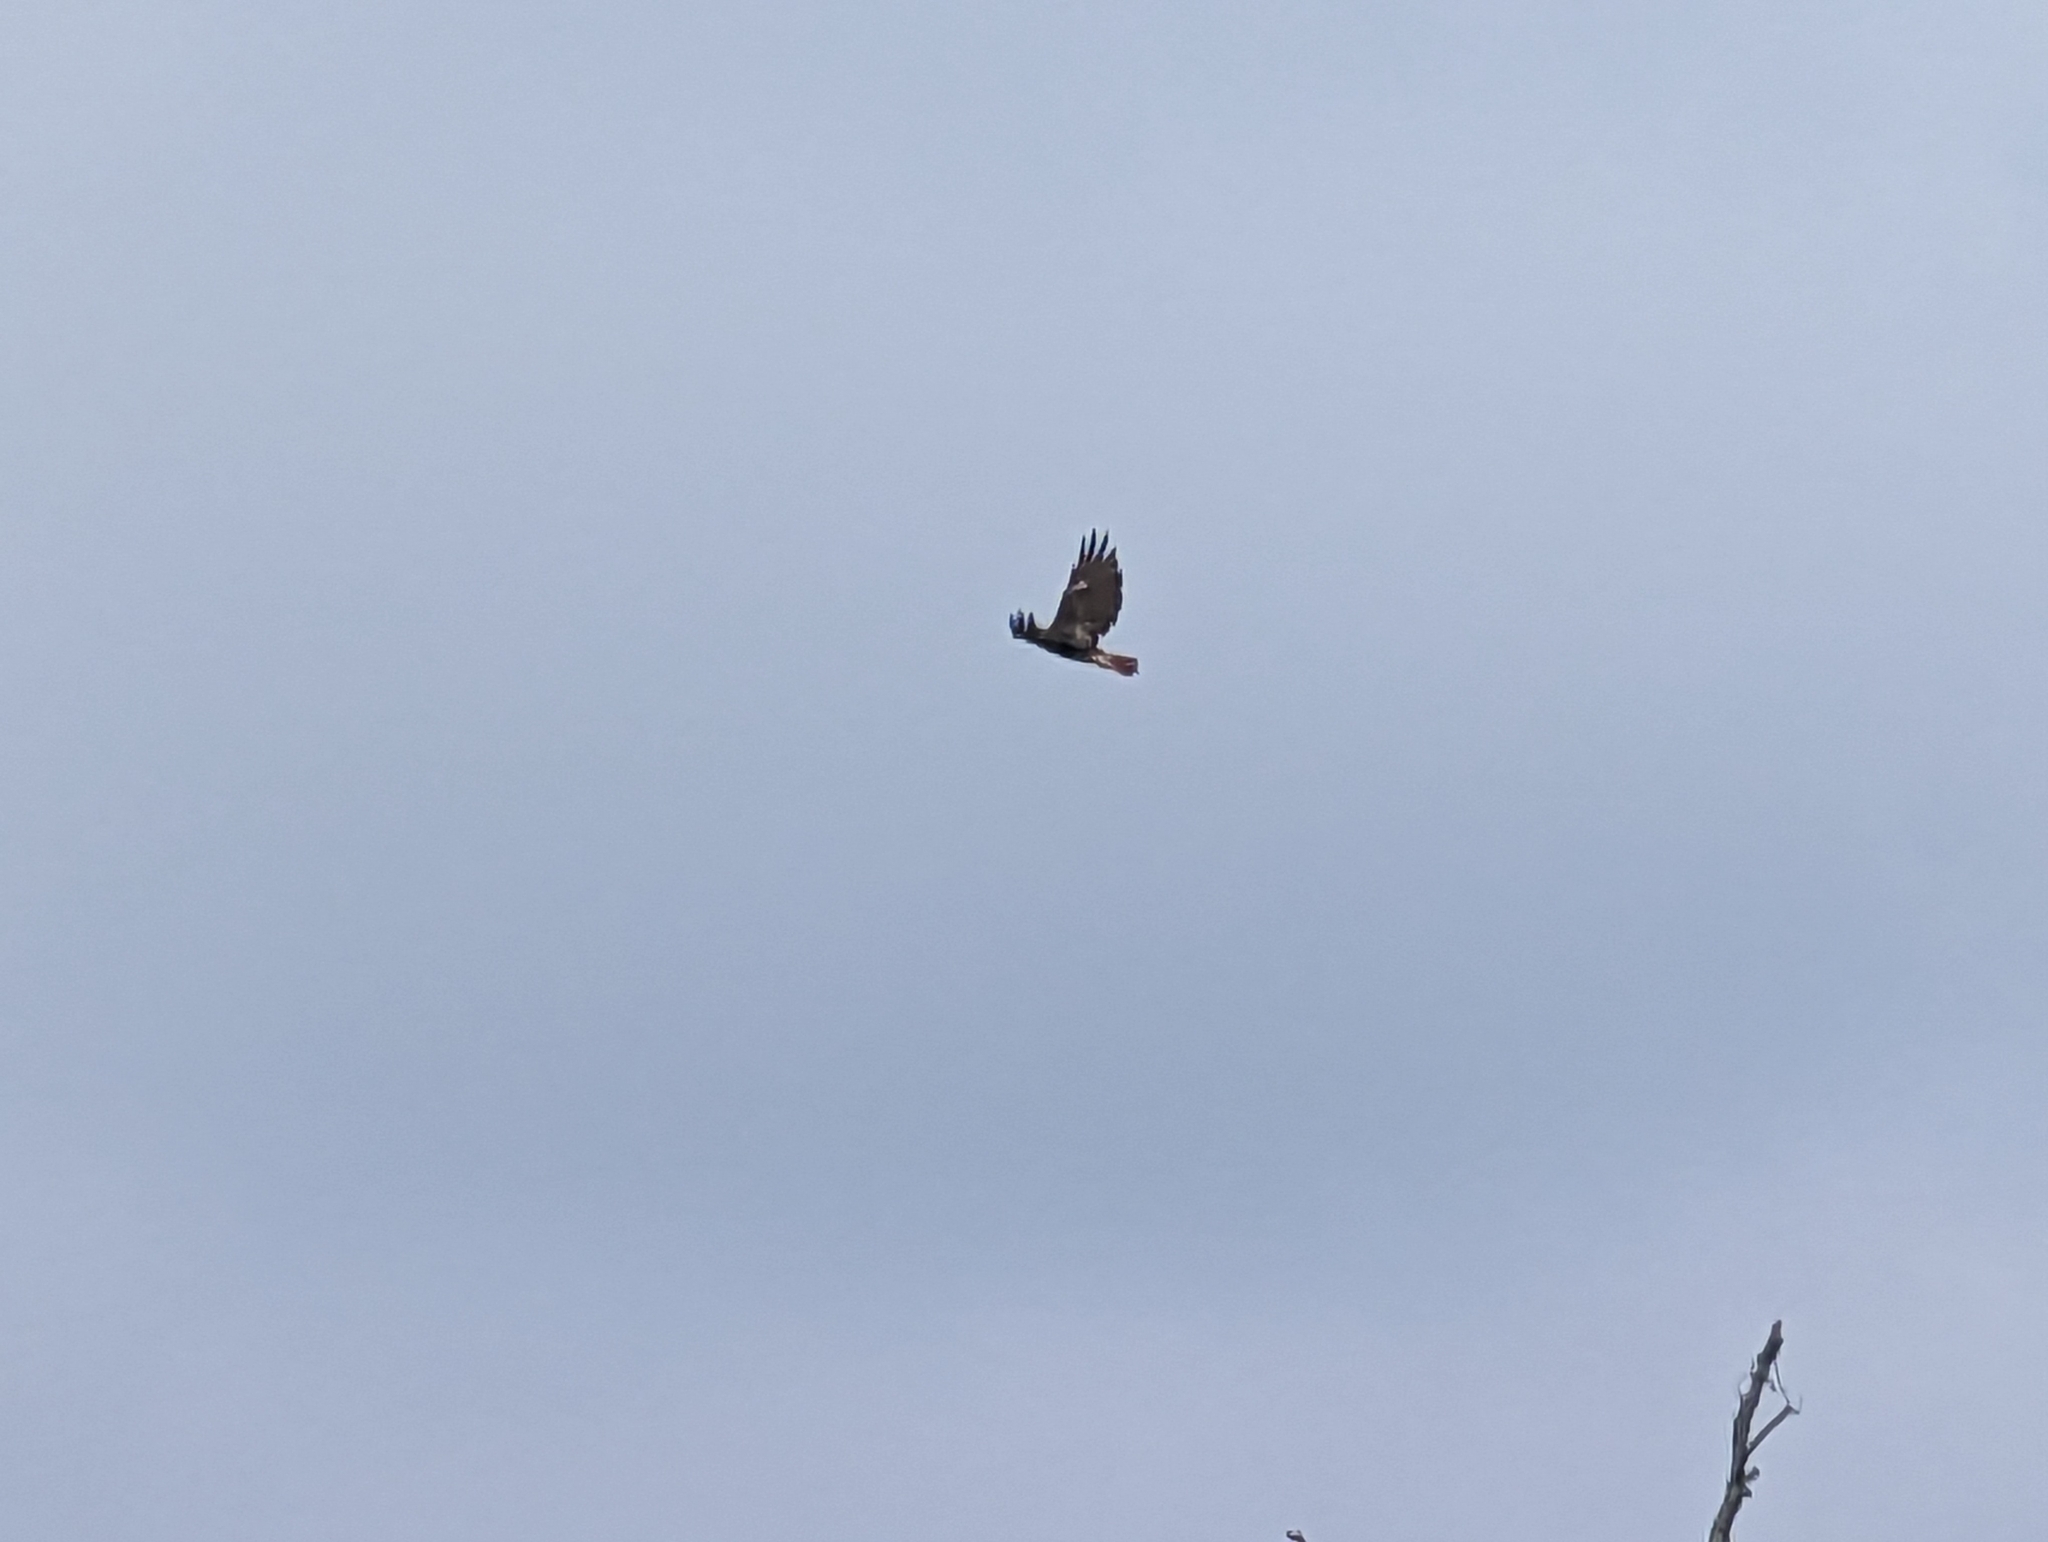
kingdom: Animalia
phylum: Chordata
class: Aves
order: Accipitriformes
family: Accipitridae
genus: Buteo
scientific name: Buteo jamaicensis
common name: Red-tailed hawk
